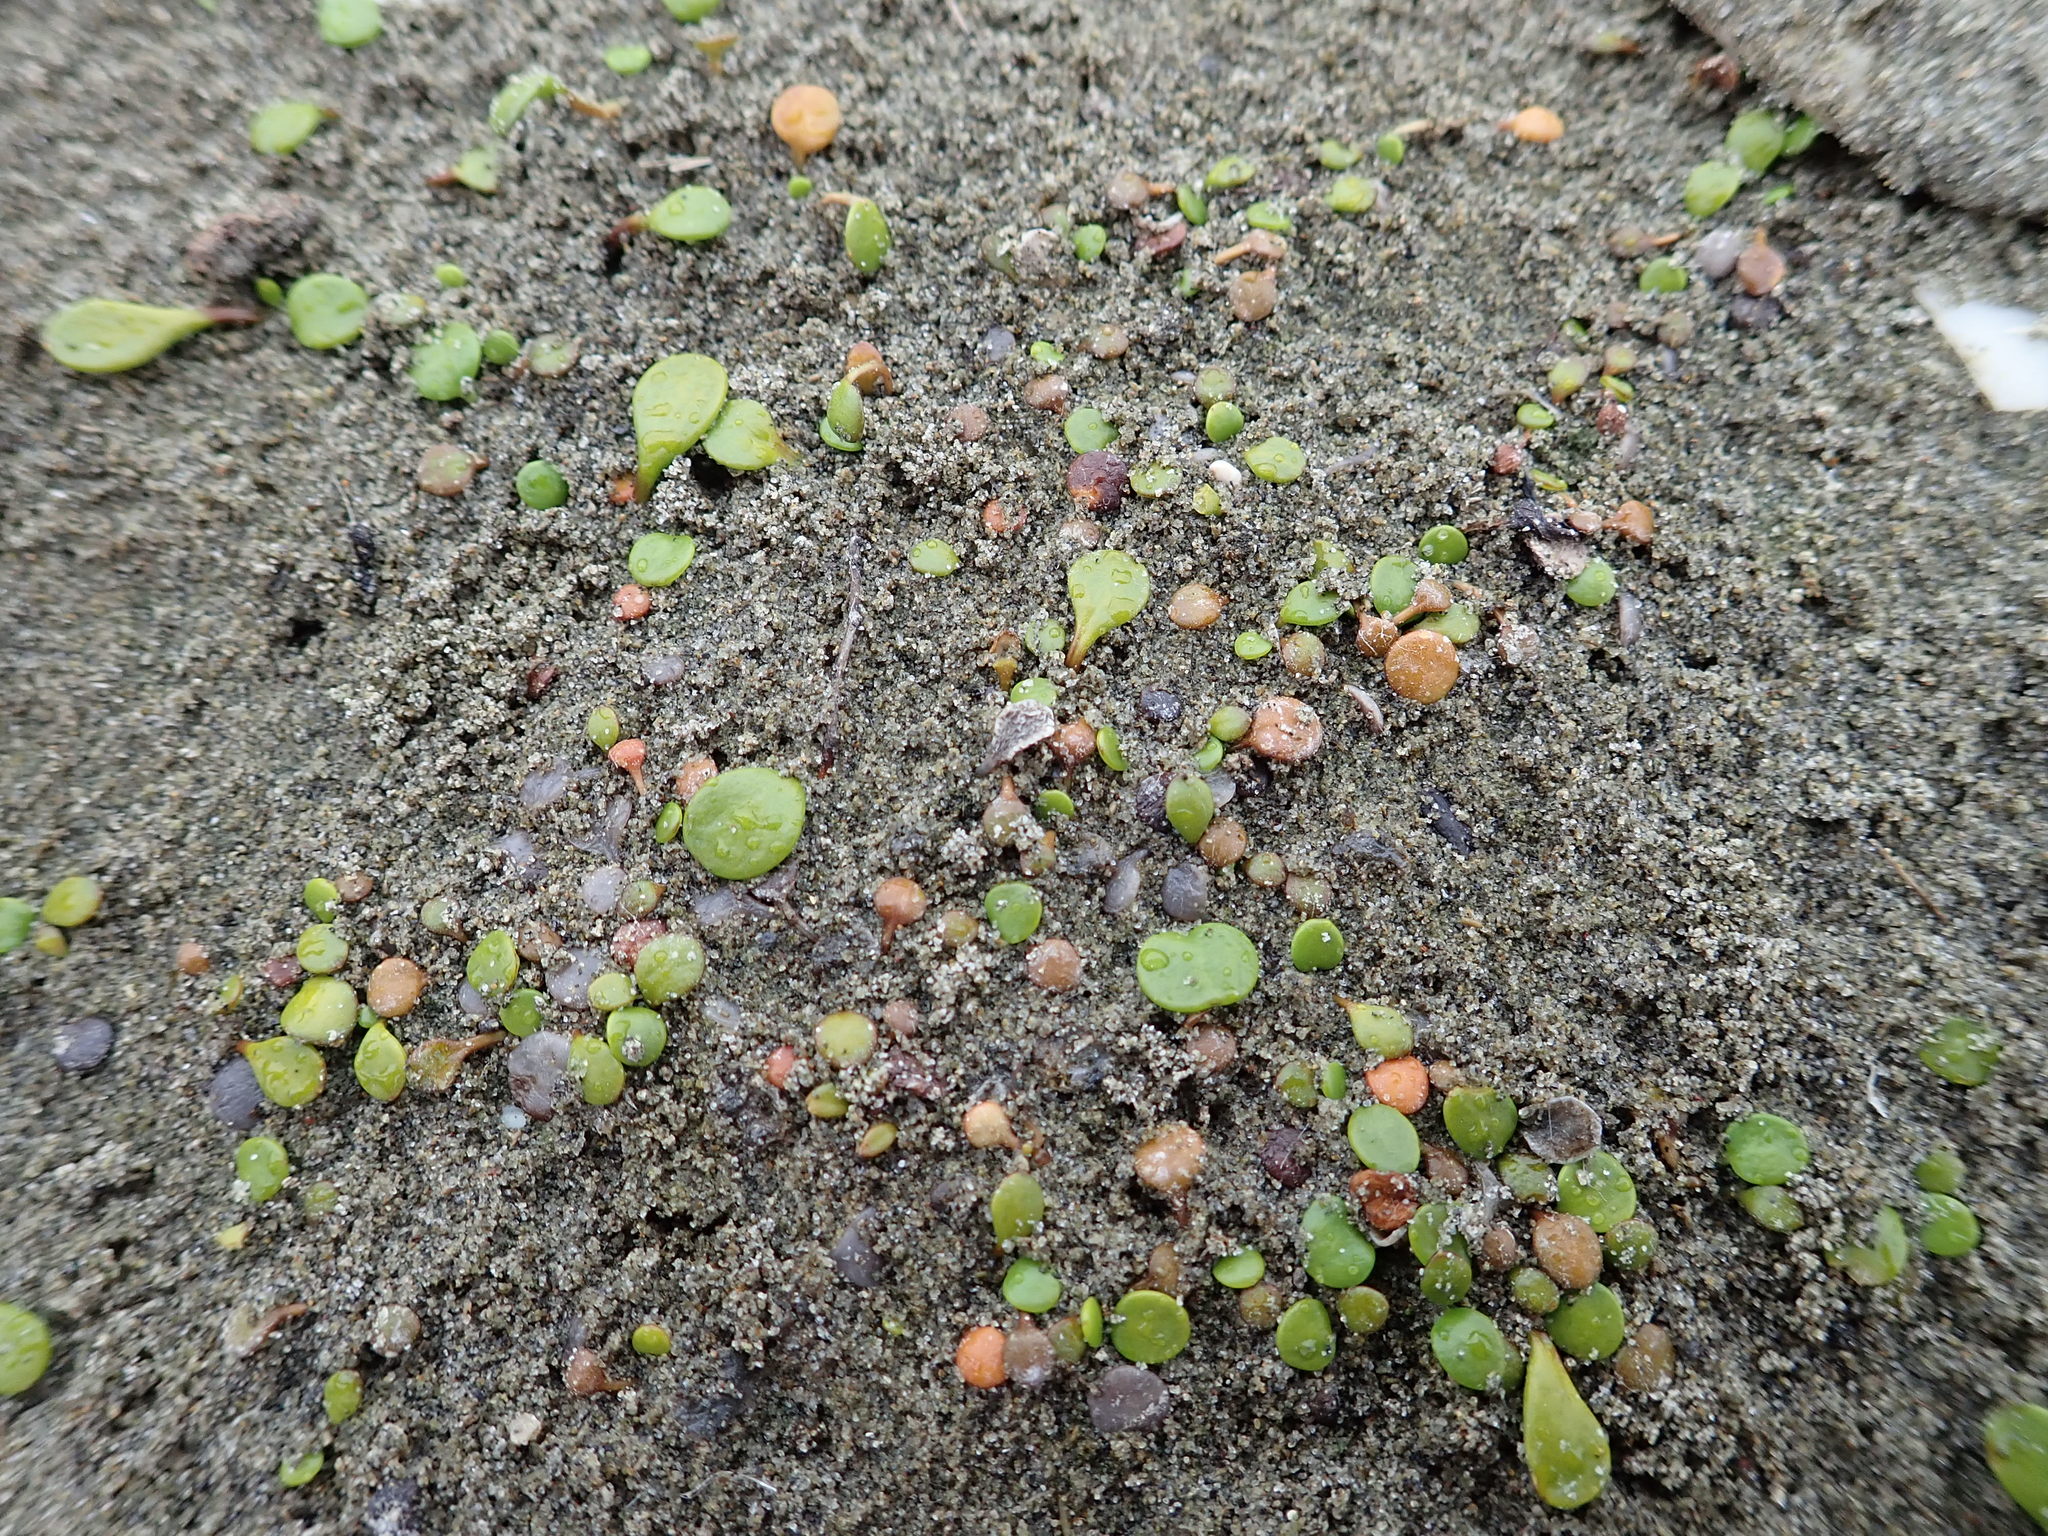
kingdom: Plantae
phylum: Tracheophyta
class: Magnoliopsida
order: Asterales
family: Goodeniaceae
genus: Goodenia
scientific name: Goodenia heenanii
